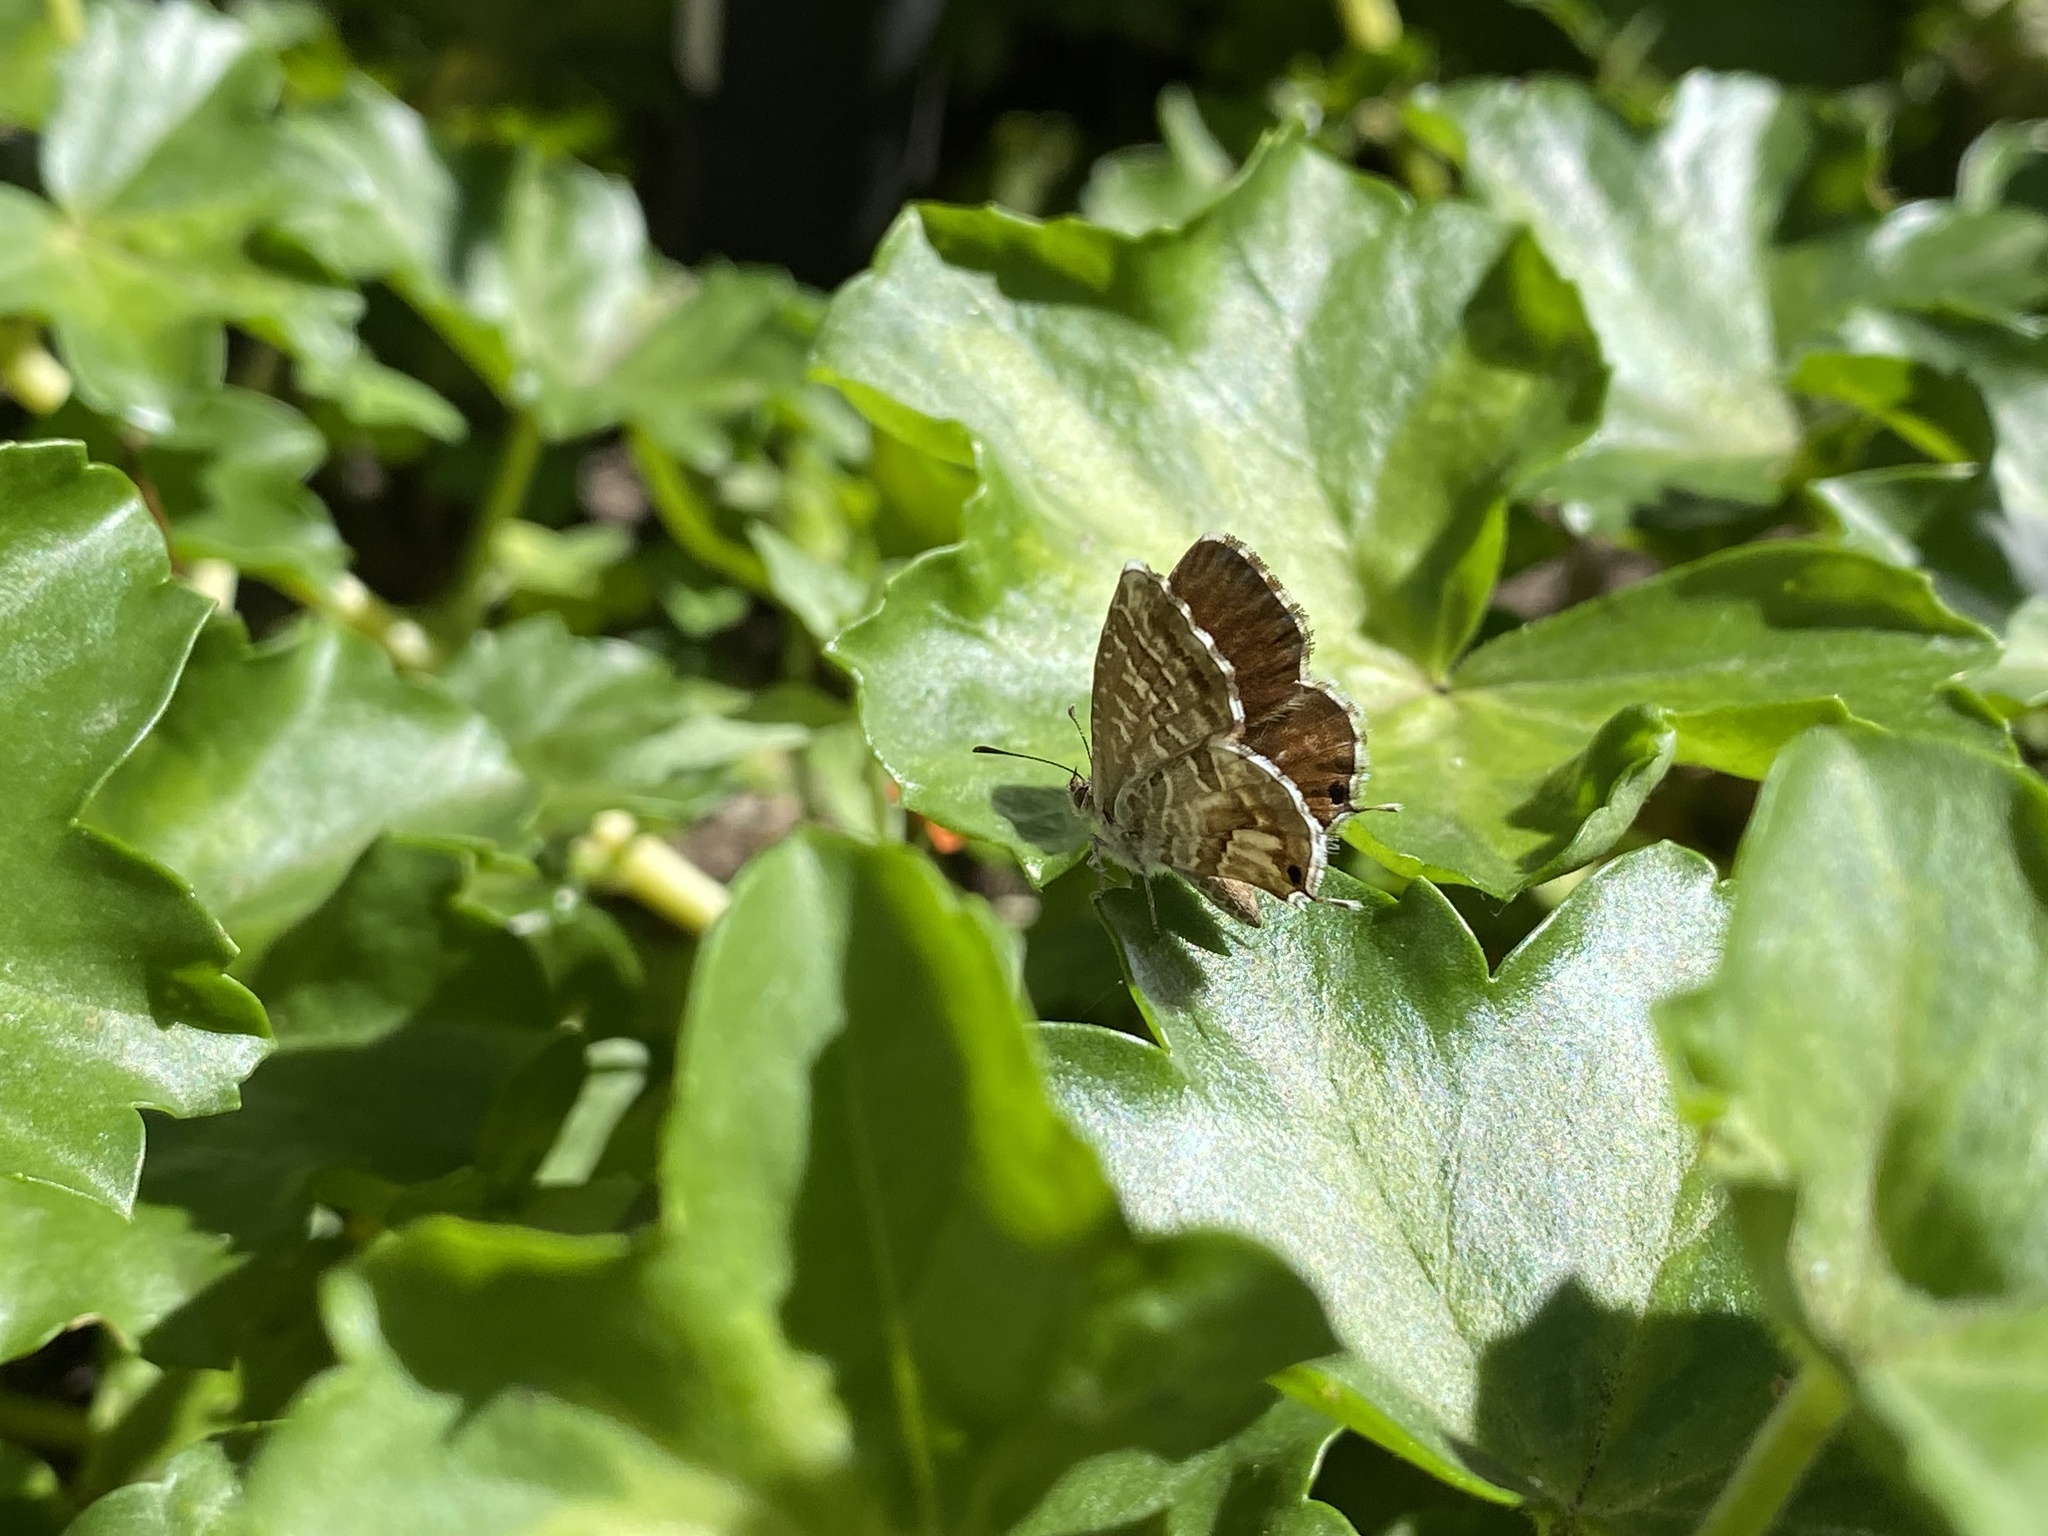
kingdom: Animalia
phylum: Arthropoda
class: Insecta
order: Lepidoptera
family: Lycaenidae
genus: Cacyreus
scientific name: Cacyreus marshalli
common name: Geranium bronze
